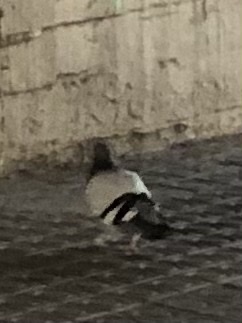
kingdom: Animalia
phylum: Chordata
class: Aves
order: Columbiformes
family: Columbidae
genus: Columba
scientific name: Columba livia
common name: Rock pigeon
